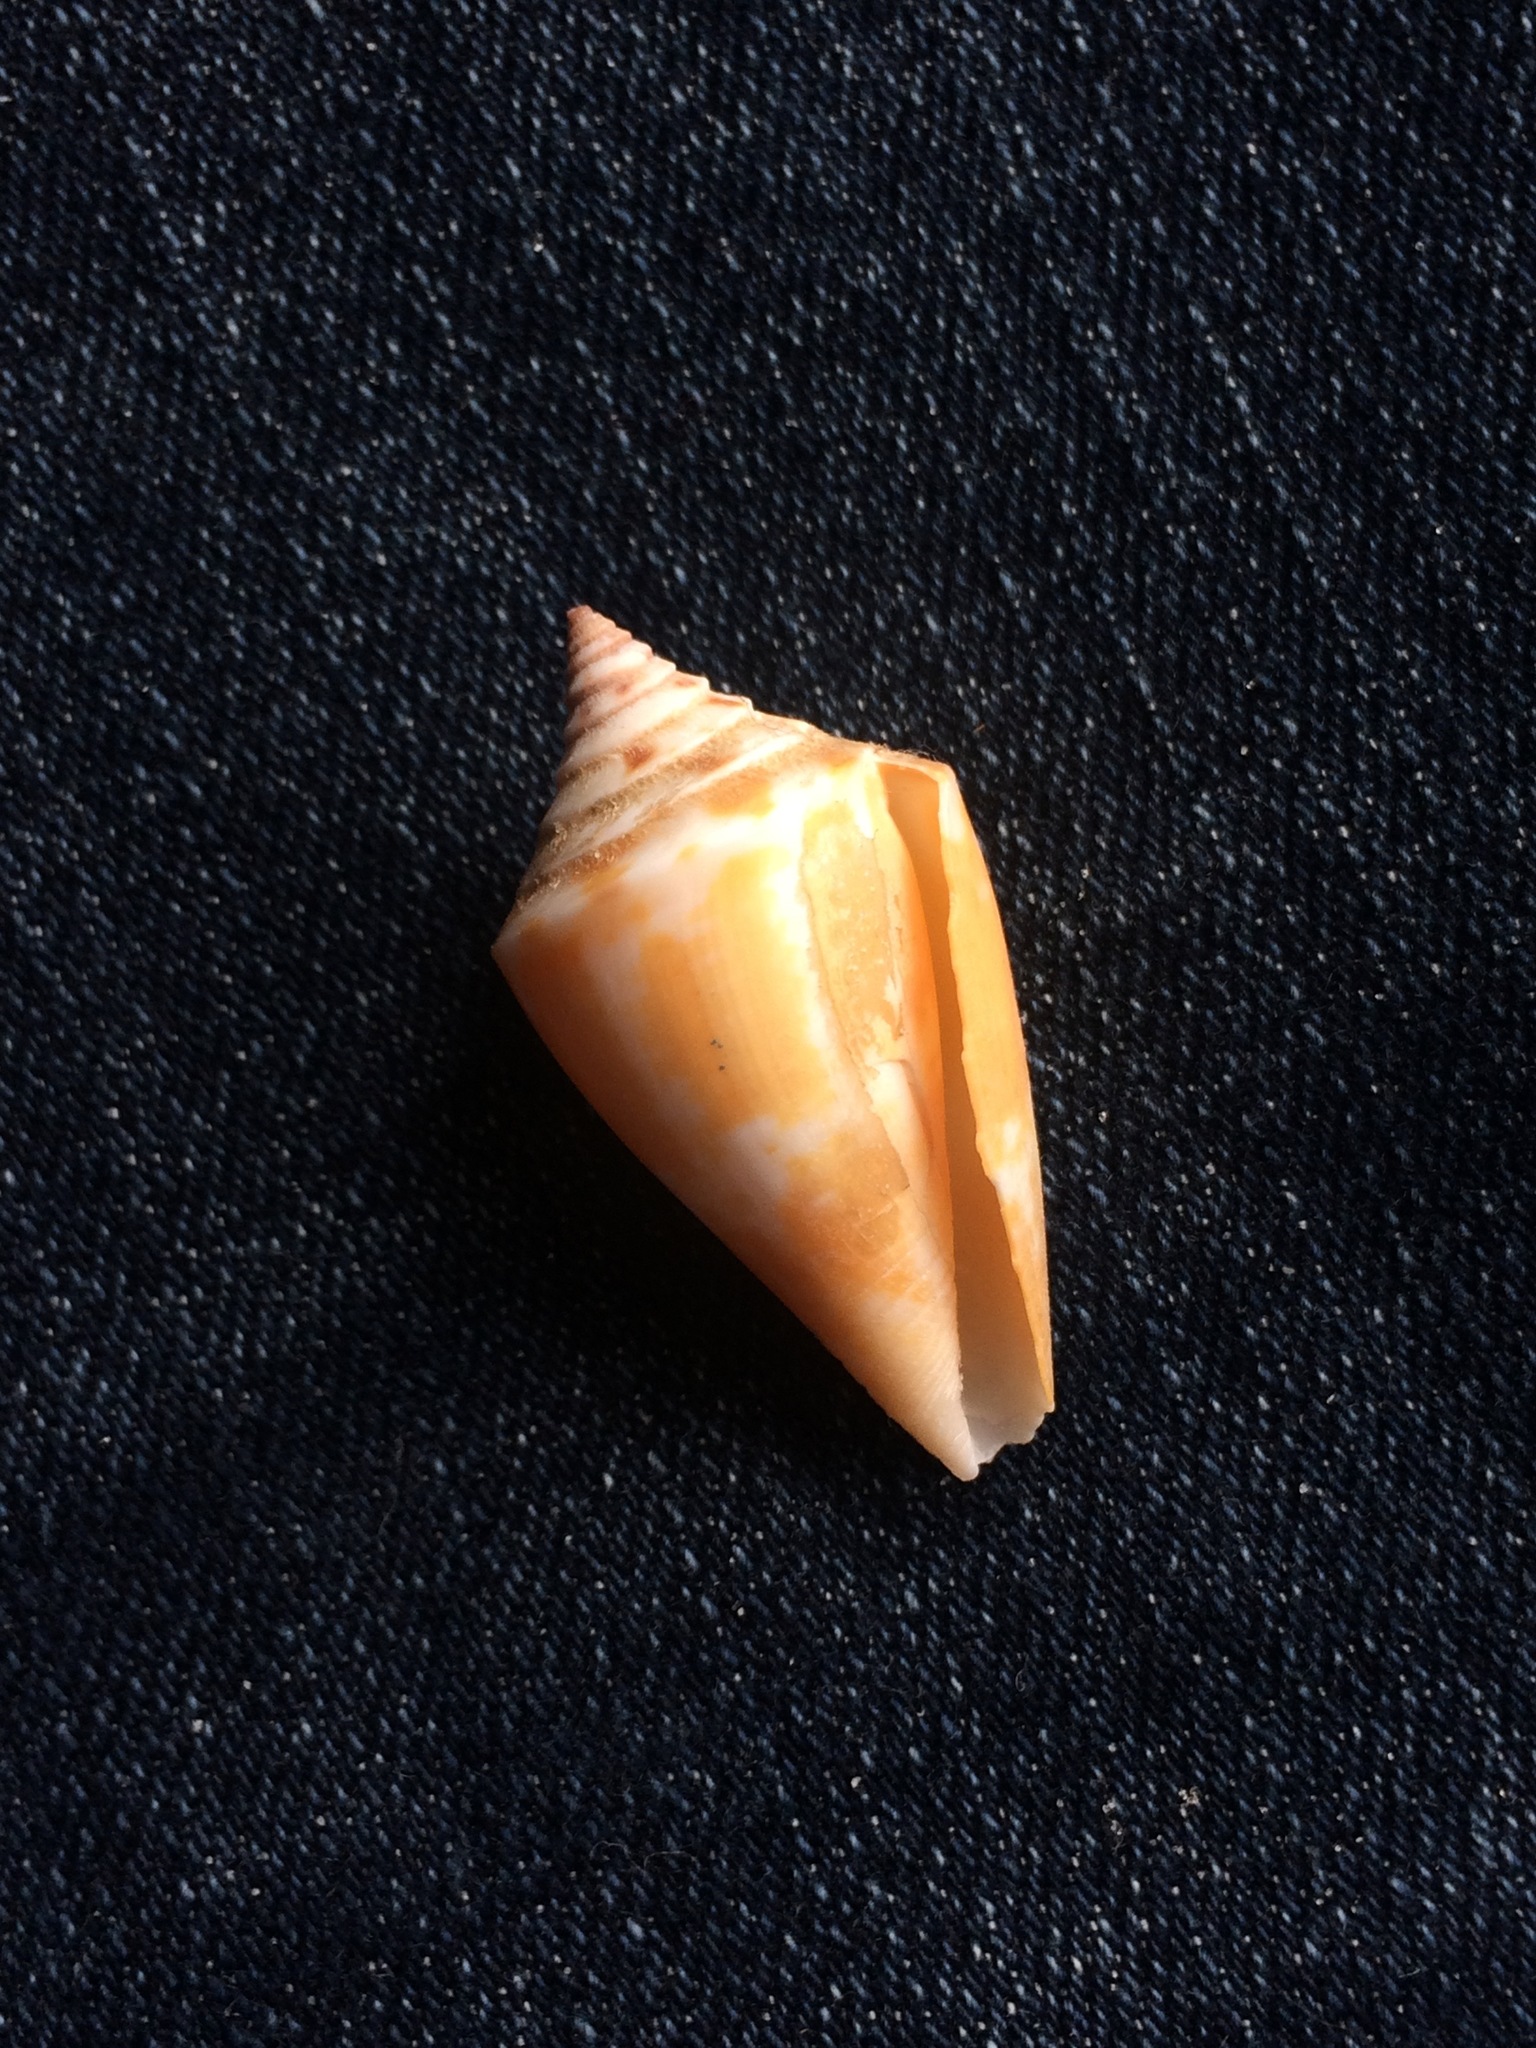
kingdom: Animalia
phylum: Mollusca
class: Gastropoda
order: Neogastropoda
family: Conidae
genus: Conus
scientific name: Conus scalaris
